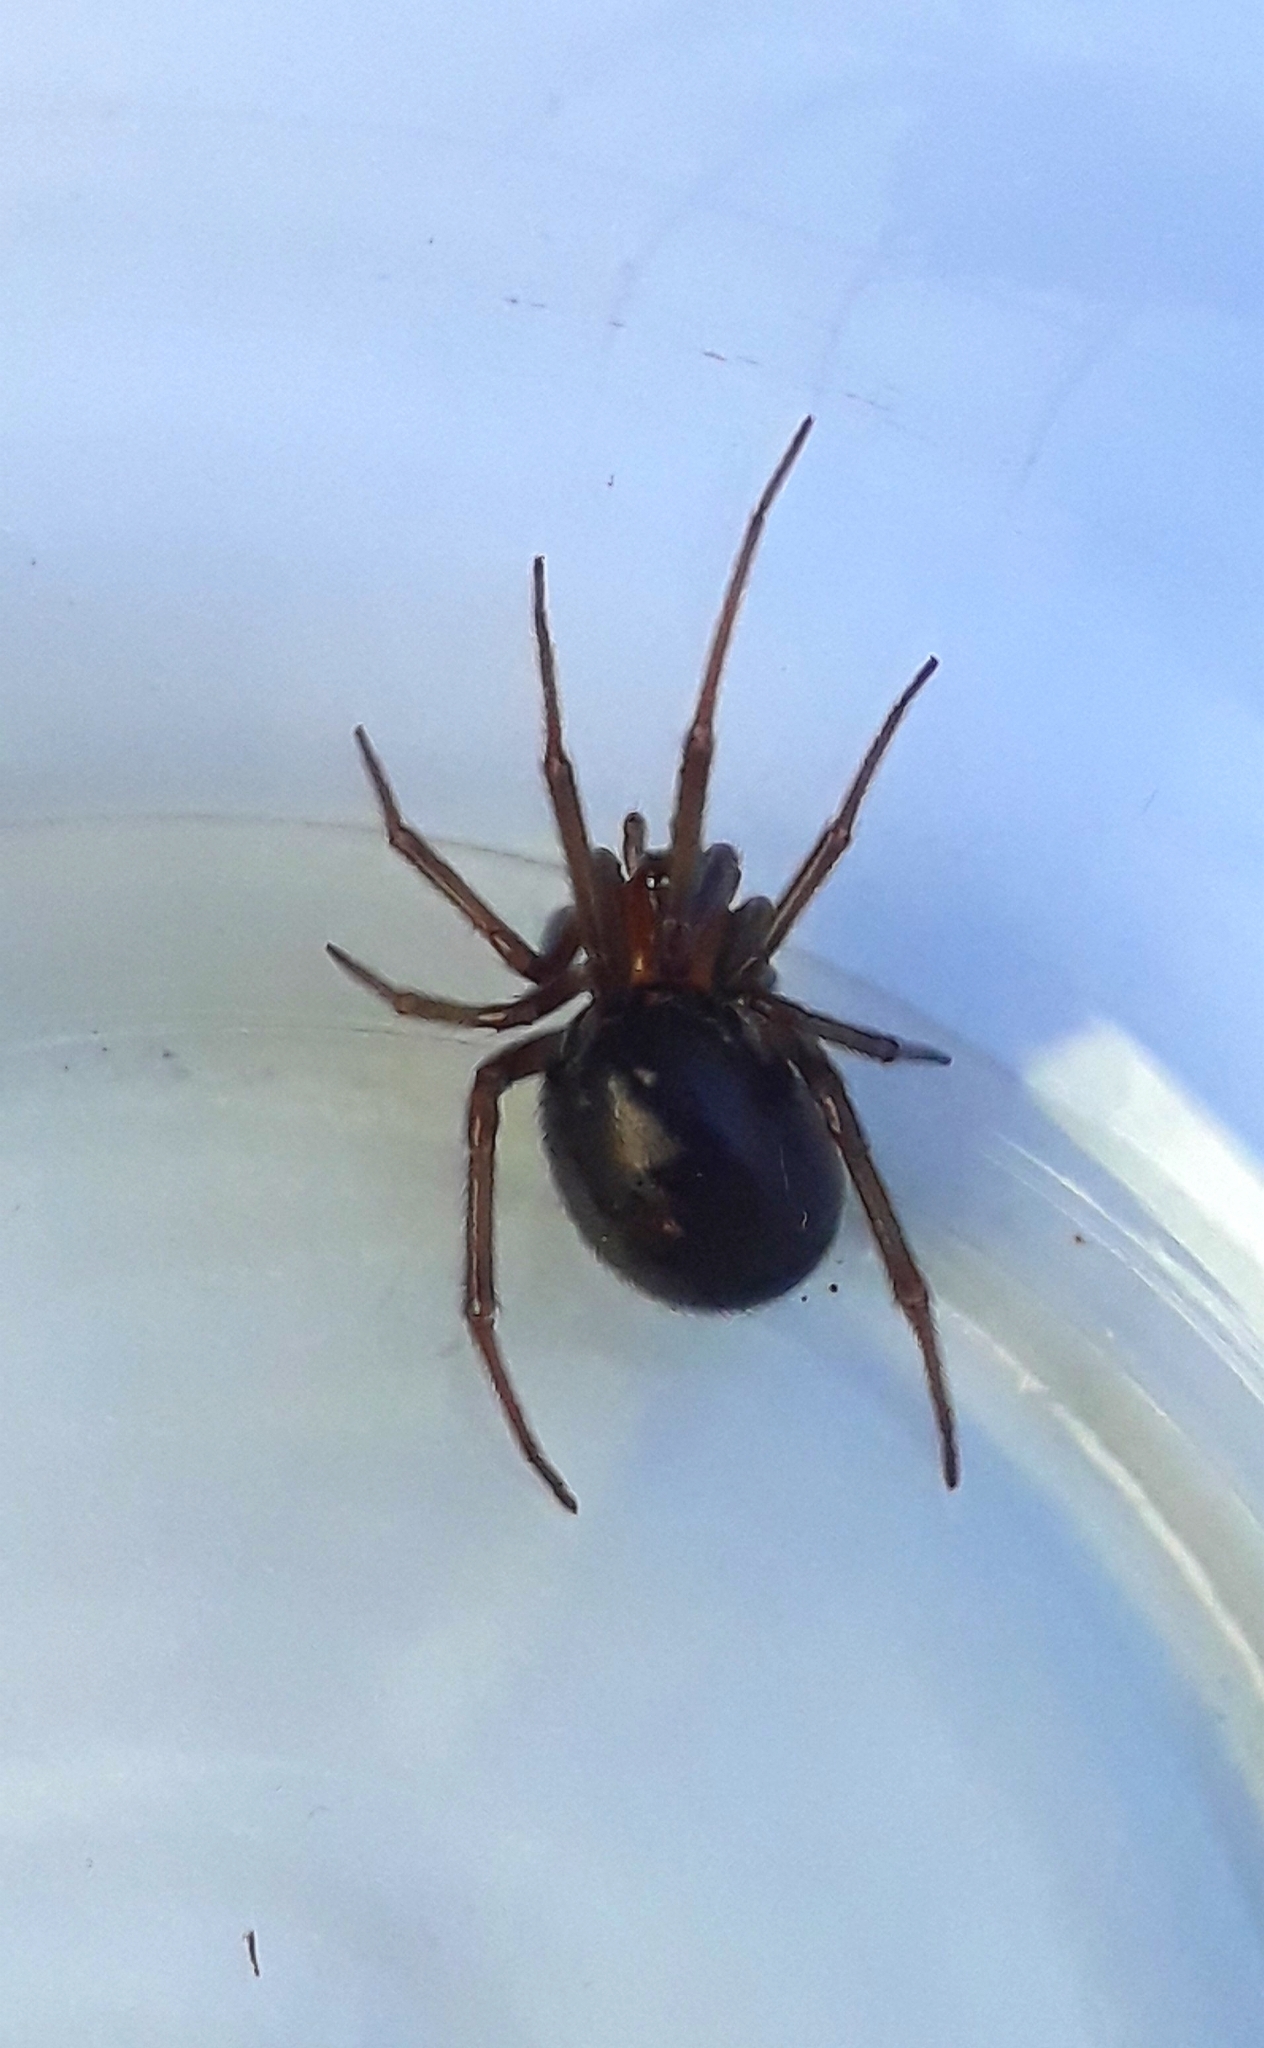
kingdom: Animalia
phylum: Arthropoda
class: Arachnida
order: Araneae
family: Theridiidae
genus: Steatoda
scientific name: Steatoda grossa
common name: False black widow
